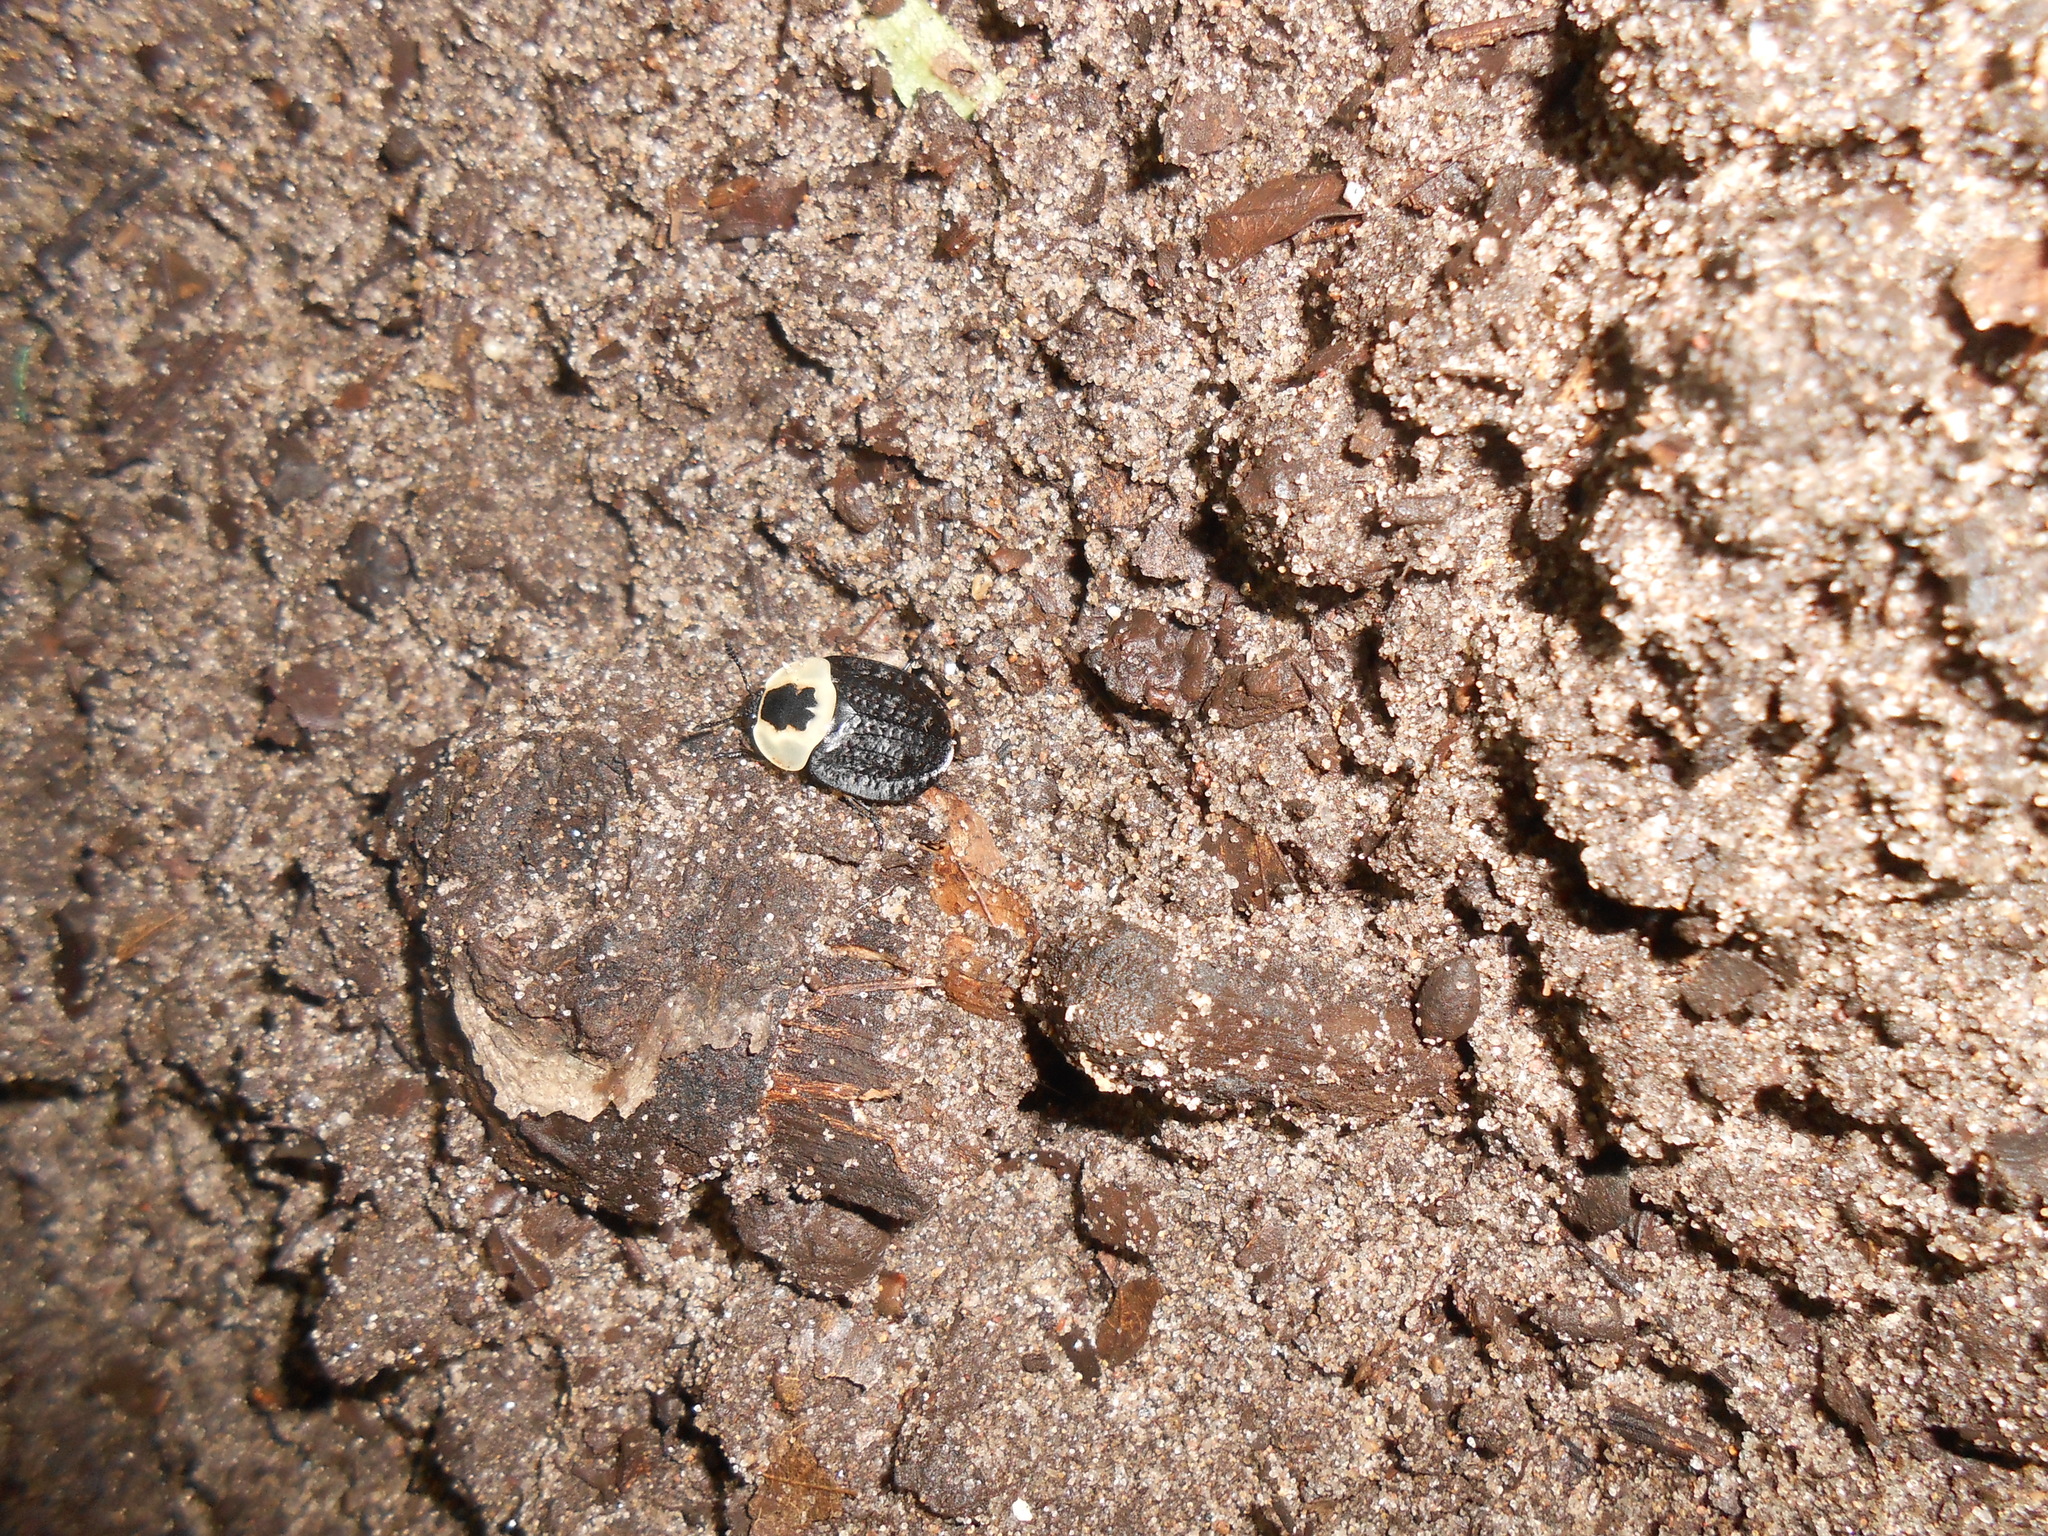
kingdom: Animalia
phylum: Arthropoda
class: Insecta
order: Coleoptera
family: Staphylinidae
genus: Necrophila
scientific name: Necrophila americana
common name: American carrion beetle
